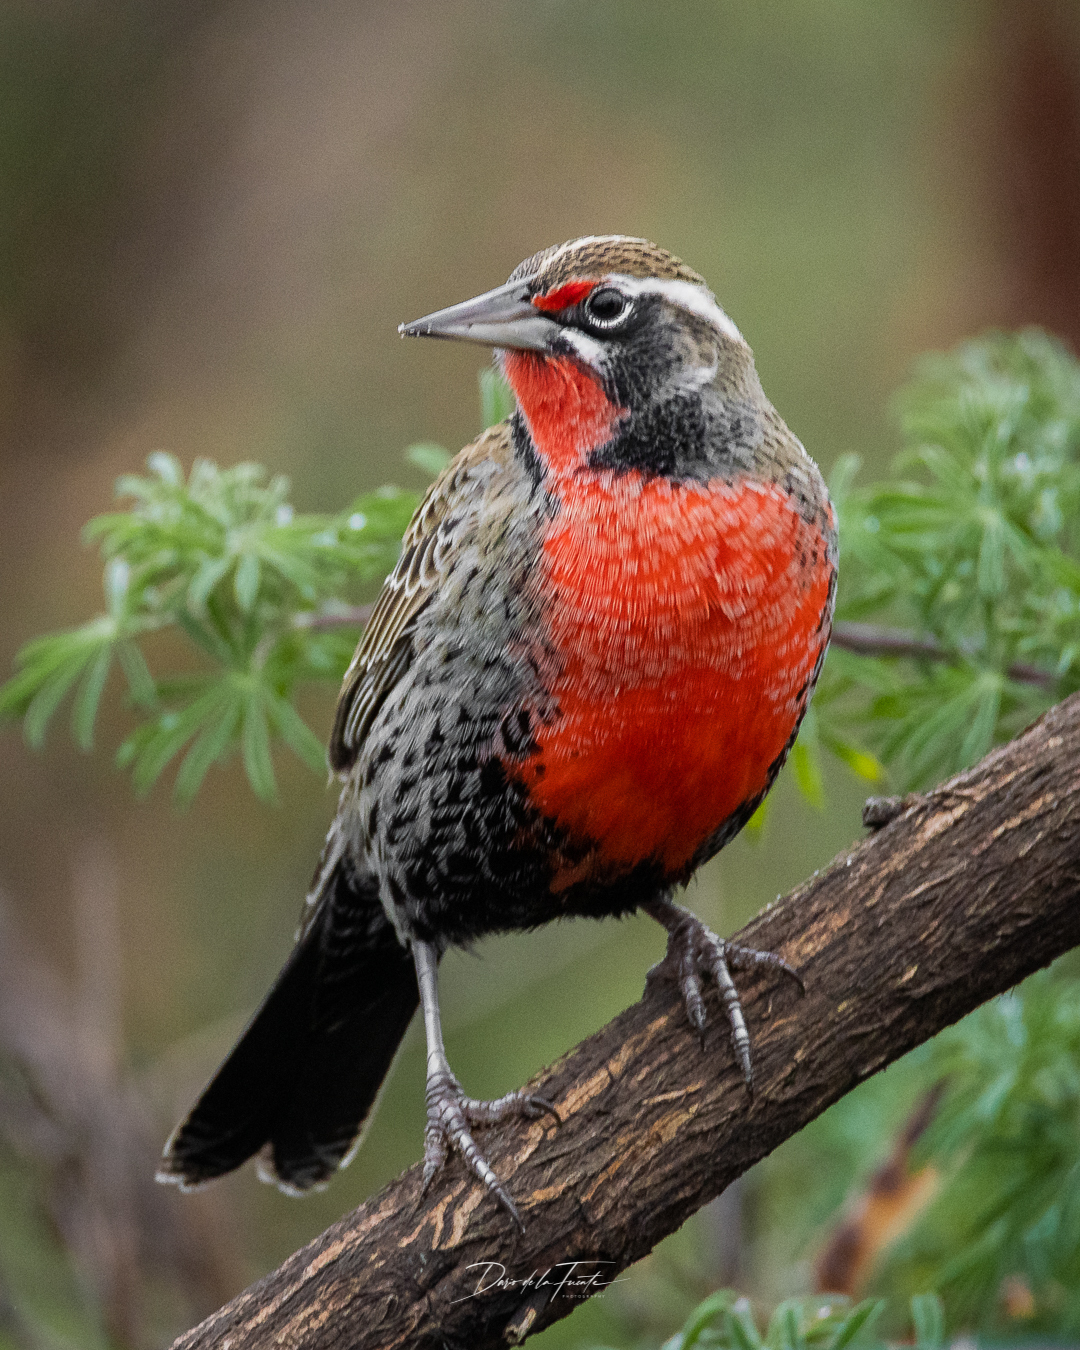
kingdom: Animalia
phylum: Chordata
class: Aves
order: Passeriformes
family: Icteridae
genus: Sturnella
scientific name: Sturnella loyca
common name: Long-tailed meadowlark
